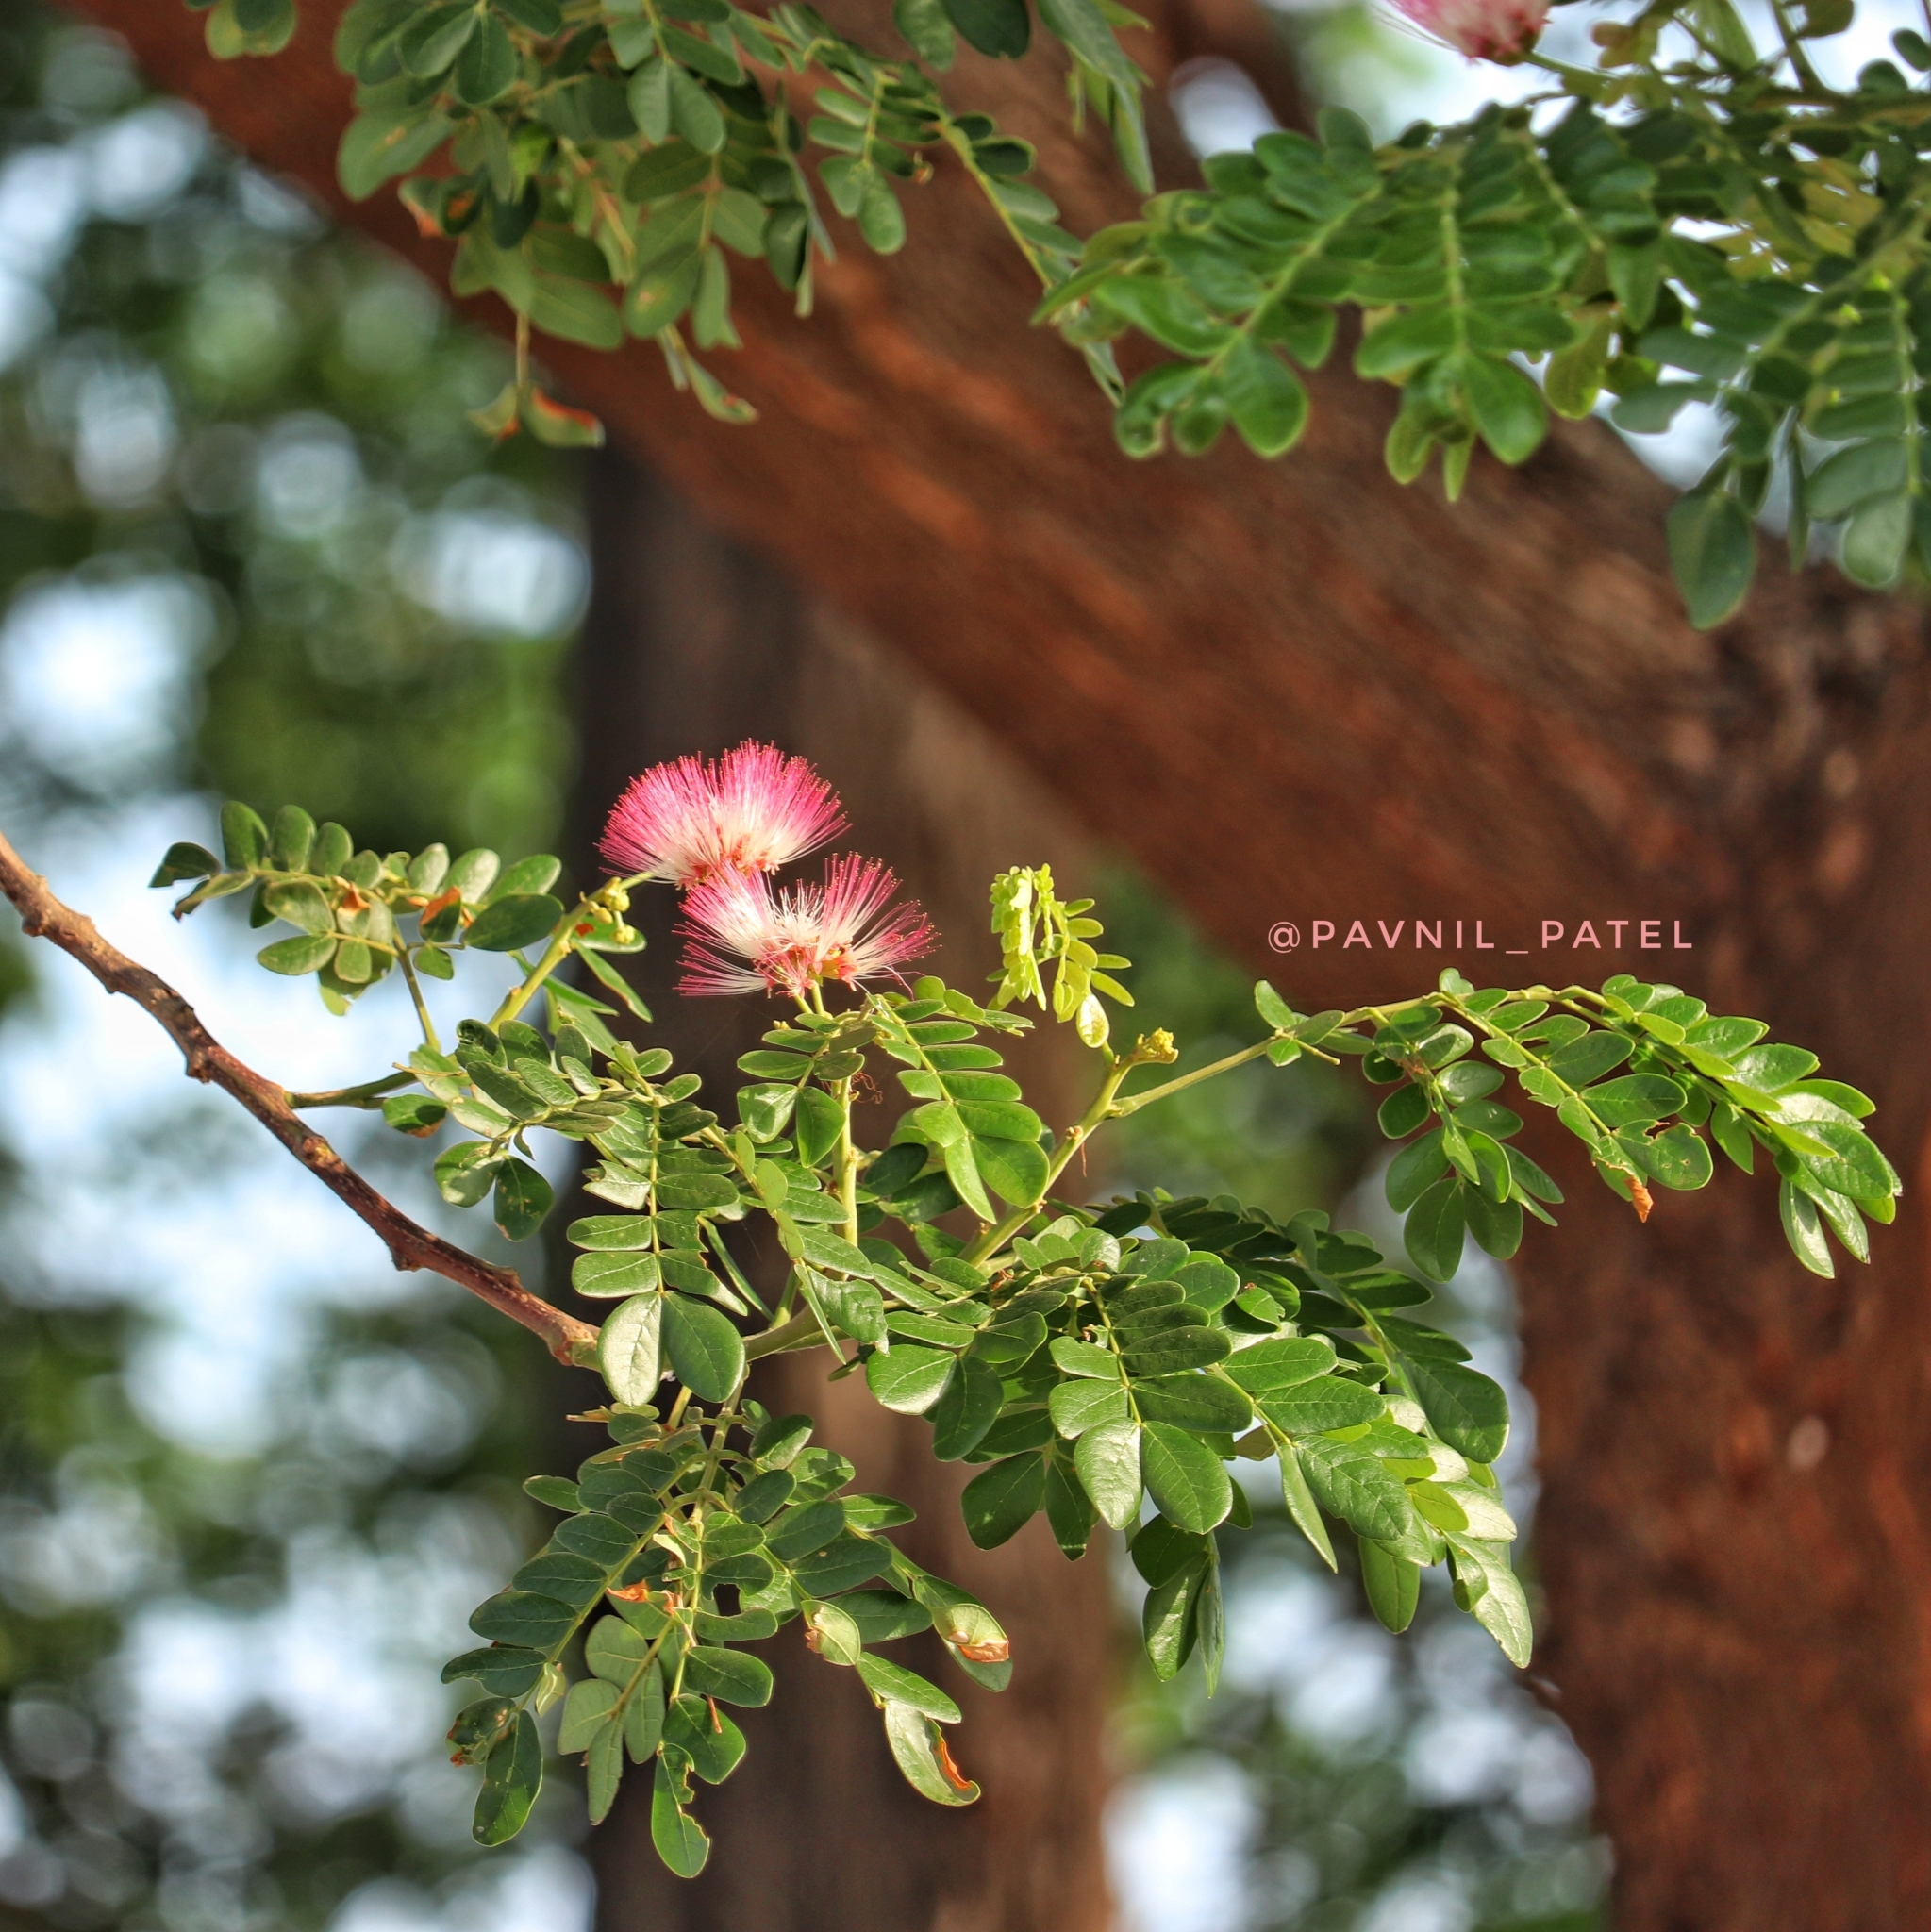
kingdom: Plantae
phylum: Tracheophyta
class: Magnoliopsida
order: Fabales
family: Fabaceae
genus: Samanea
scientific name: Samanea saman
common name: Raintree
